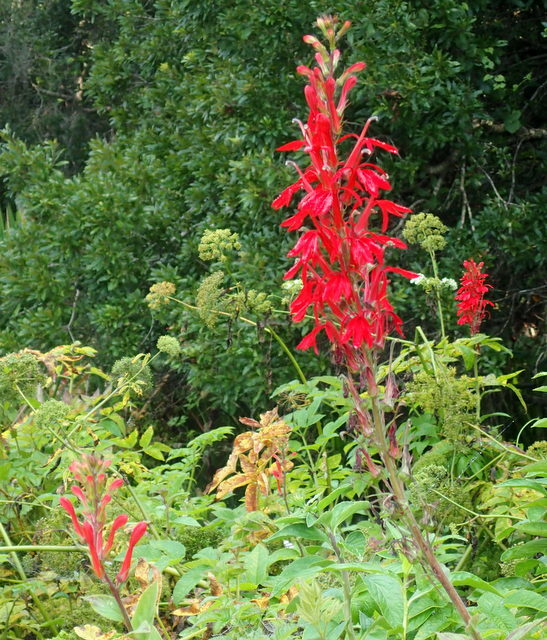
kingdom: Plantae
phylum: Tracheophyta
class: Magnoliopsida
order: Asterales
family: Campanulaceae
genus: Lobelia
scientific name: Lobelia cardinalis
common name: Cardinal flower
